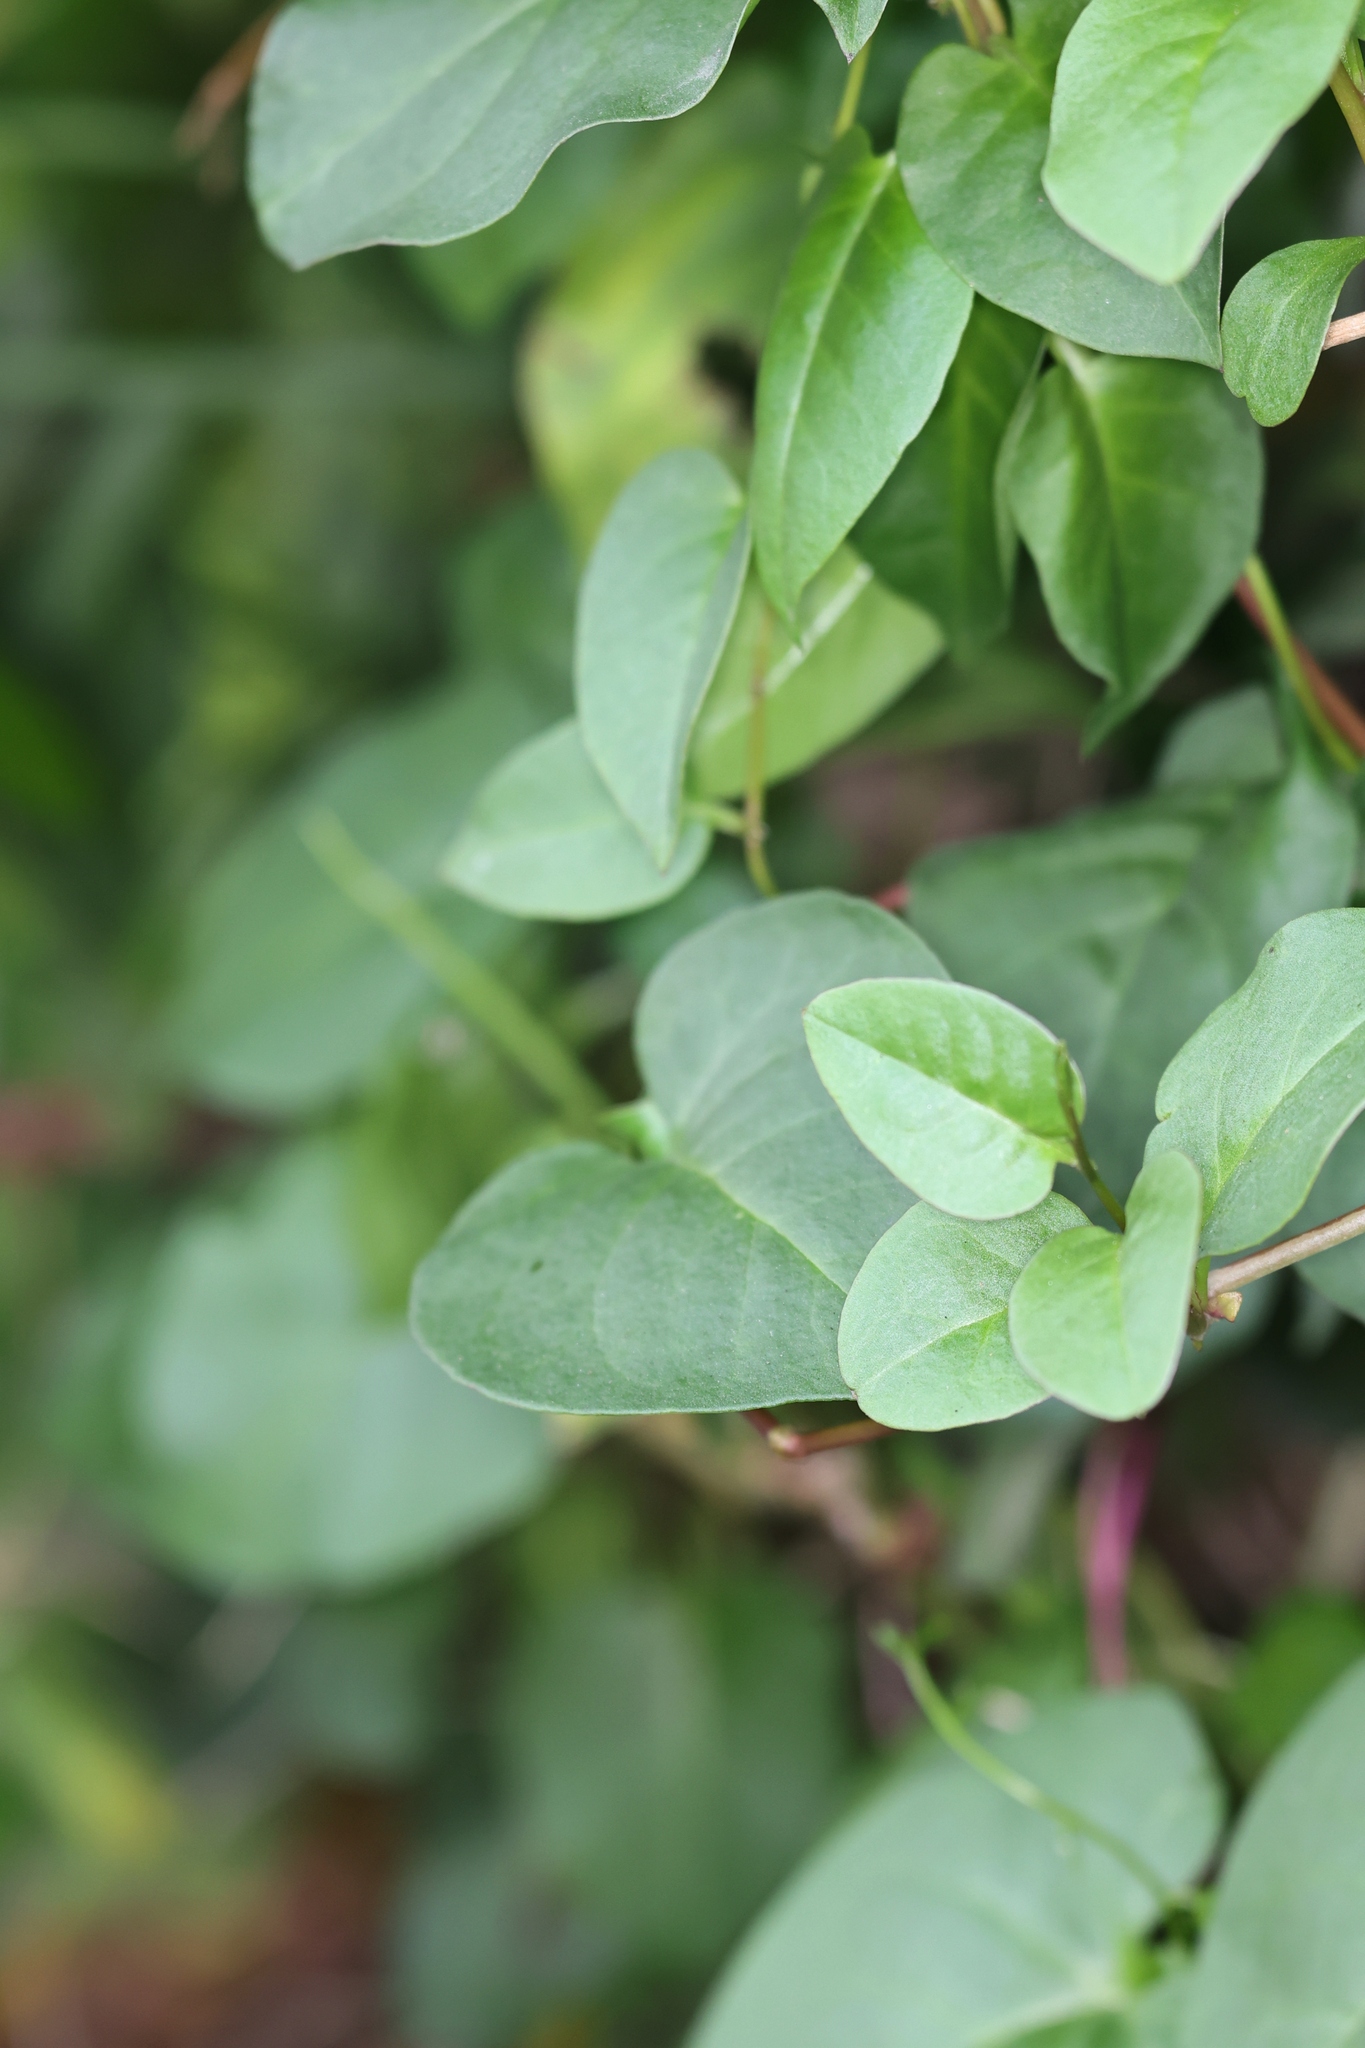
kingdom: Plantae
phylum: Tracheophyta
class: Magnoliopsida
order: Caryophyllales
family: Basellaceae
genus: Anredera
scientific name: Anredera cordifolia
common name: Heartleaf madeiravine
